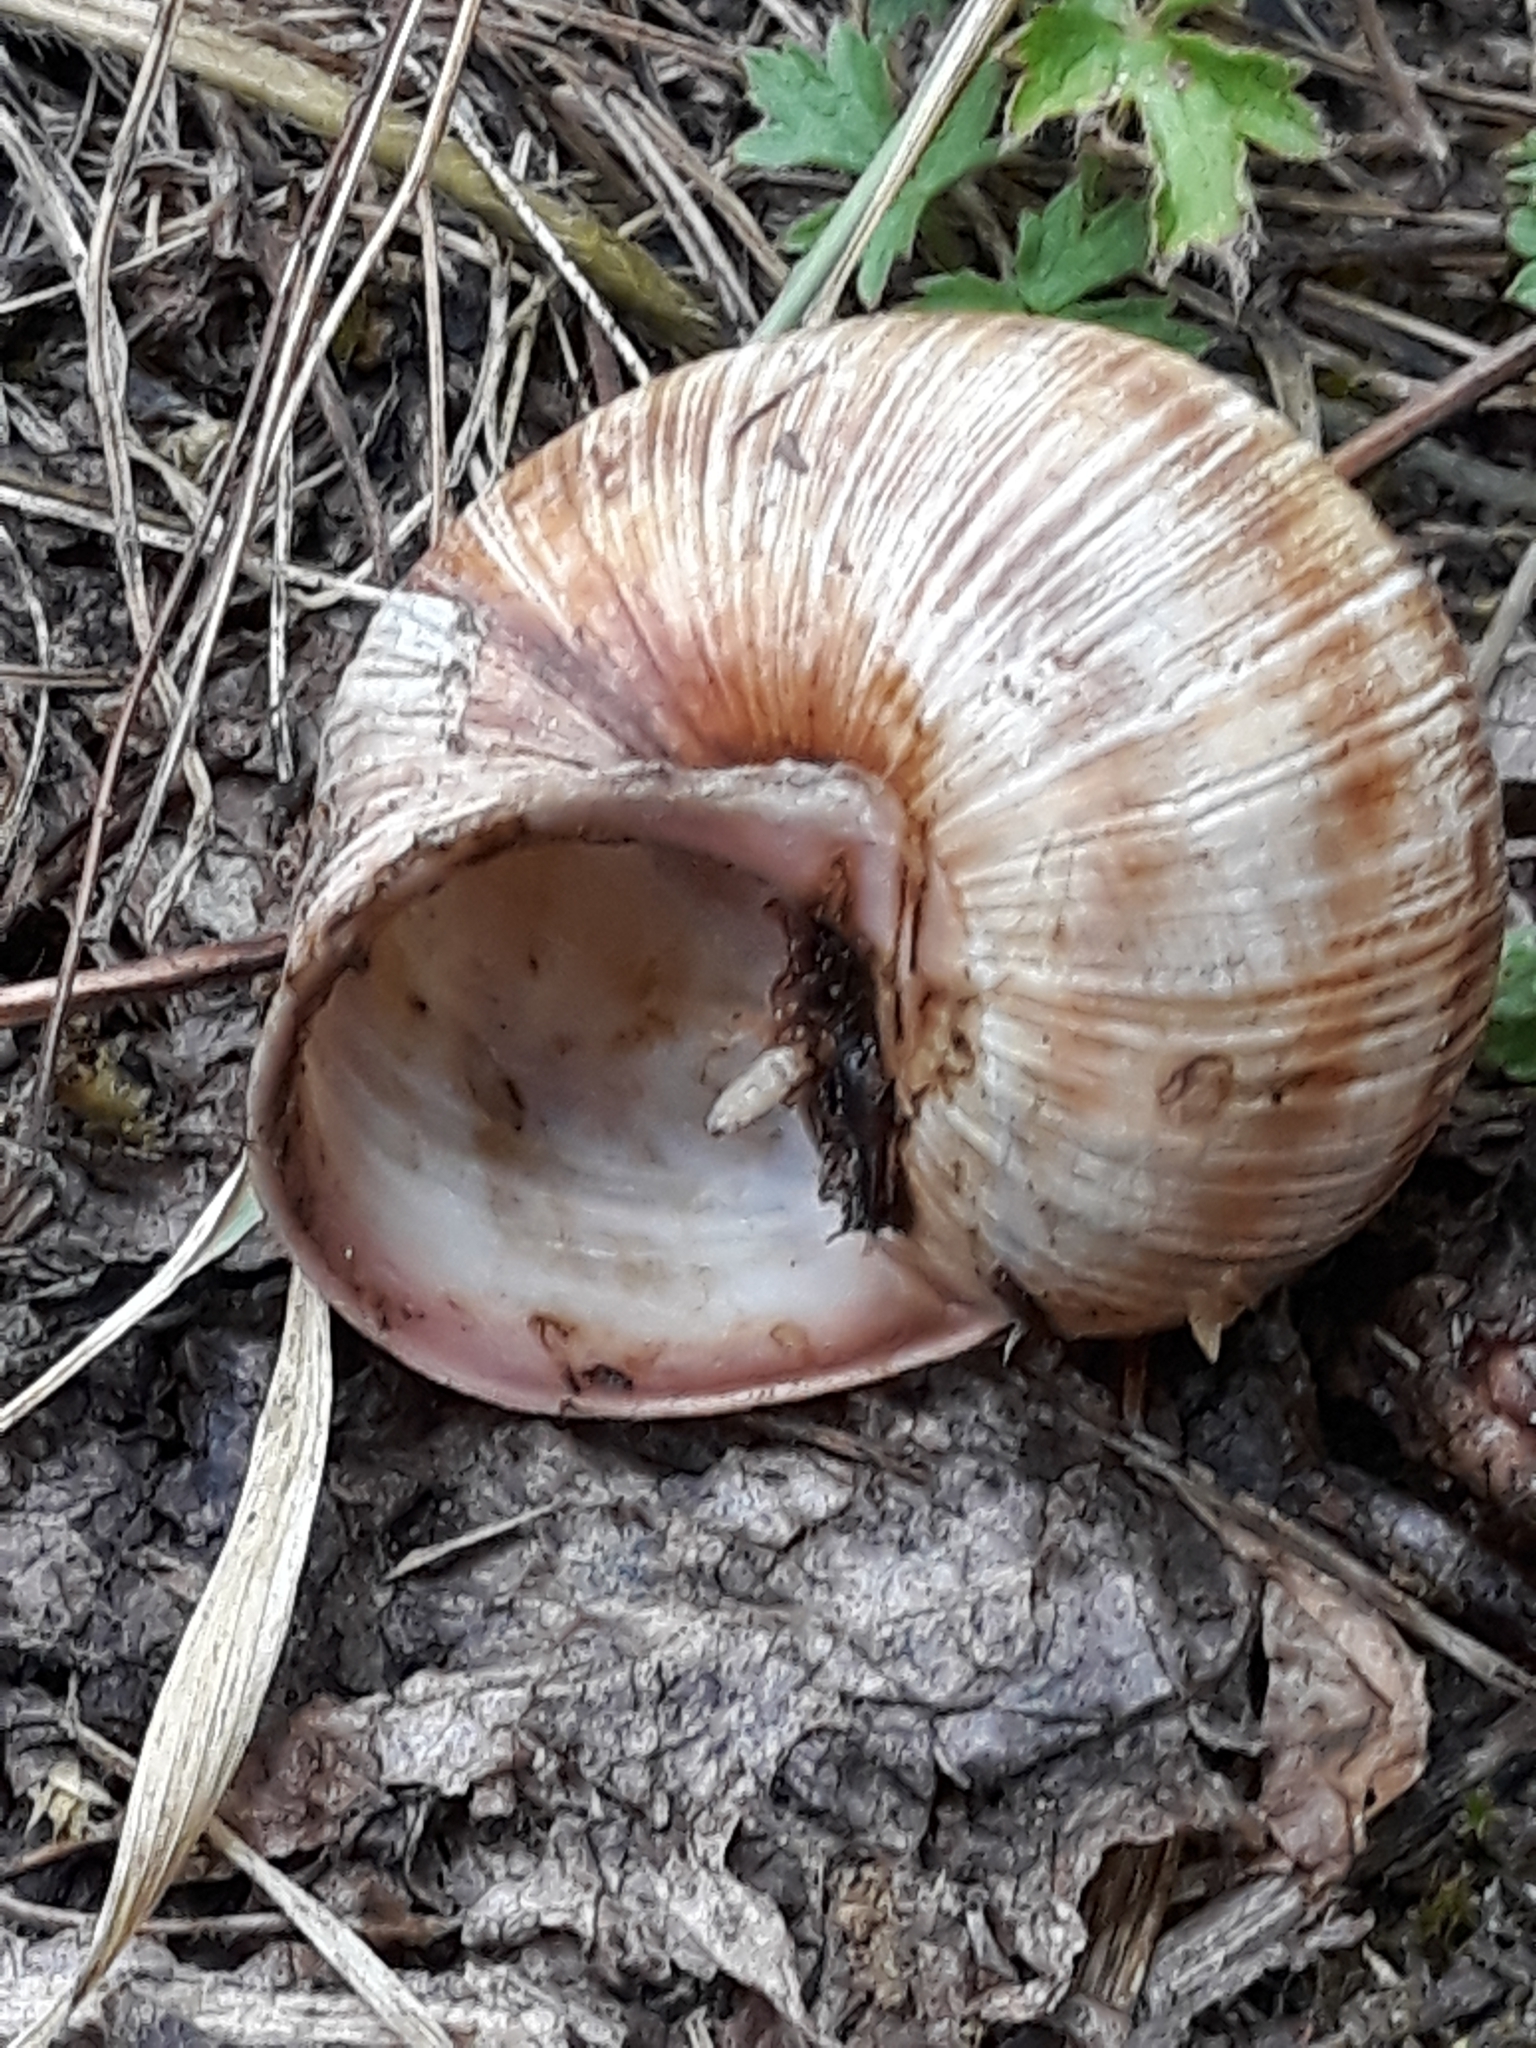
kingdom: Animalia
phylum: Mollusca
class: Gastropoda
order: Stylommatophora
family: Helicidae
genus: Helix
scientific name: Helix pomatia
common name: Roman snail
